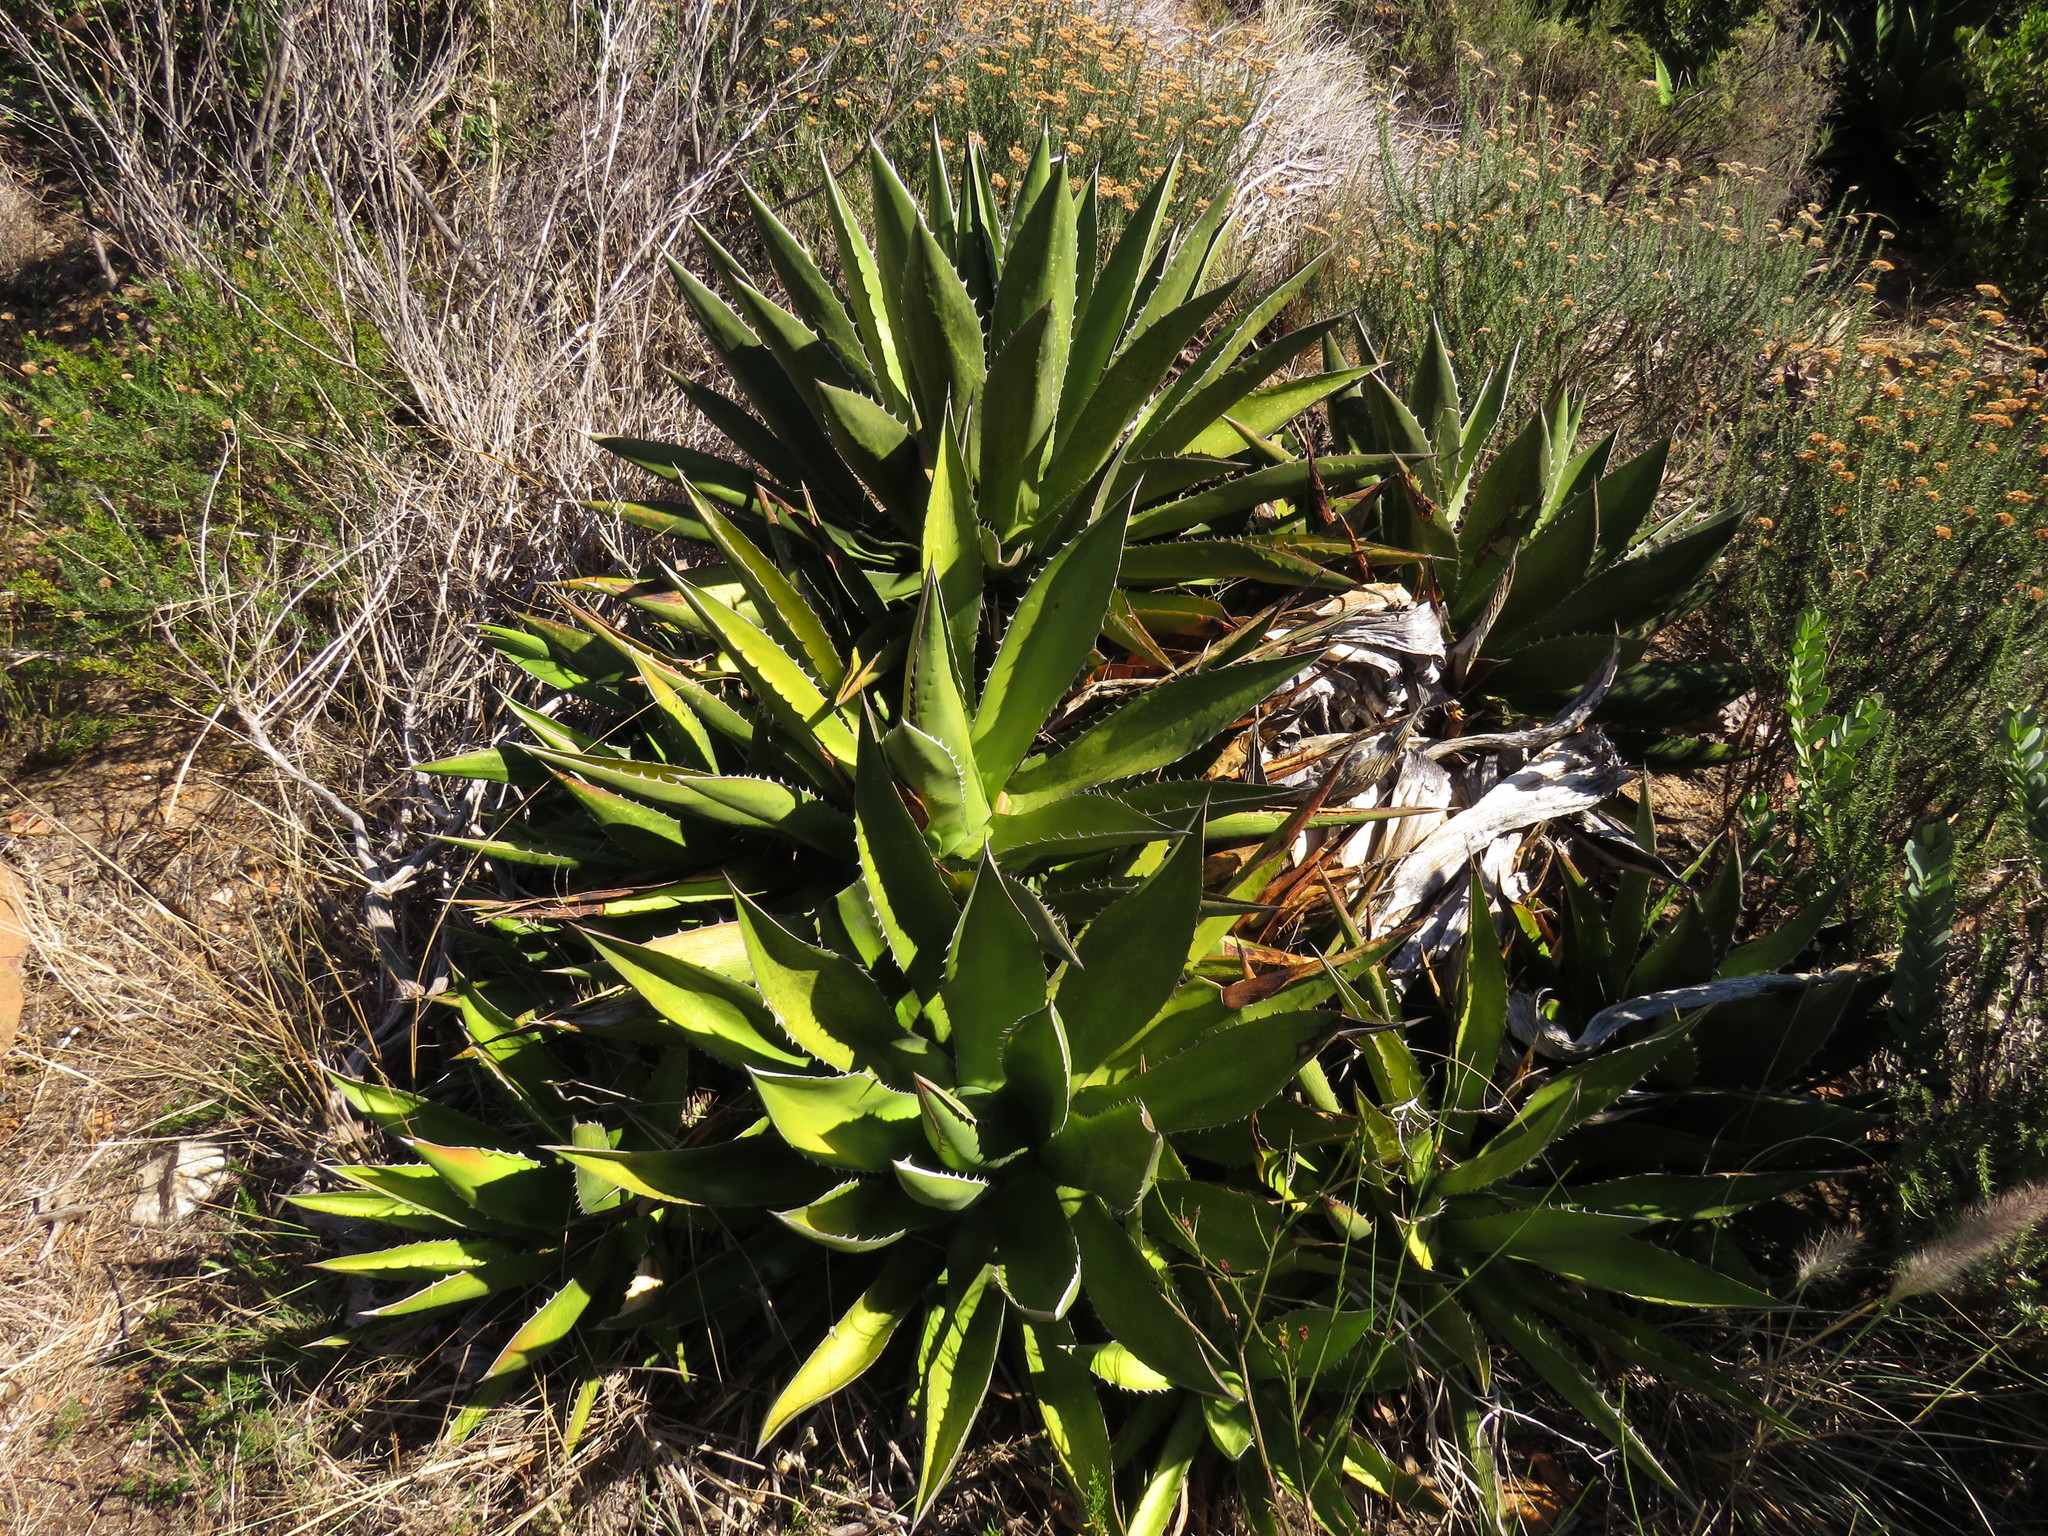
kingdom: Plantae
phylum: Tracheophyta
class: Liliopsida
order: Asparagales
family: Asparagaceae
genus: Agave
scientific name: Agave karwinskii
